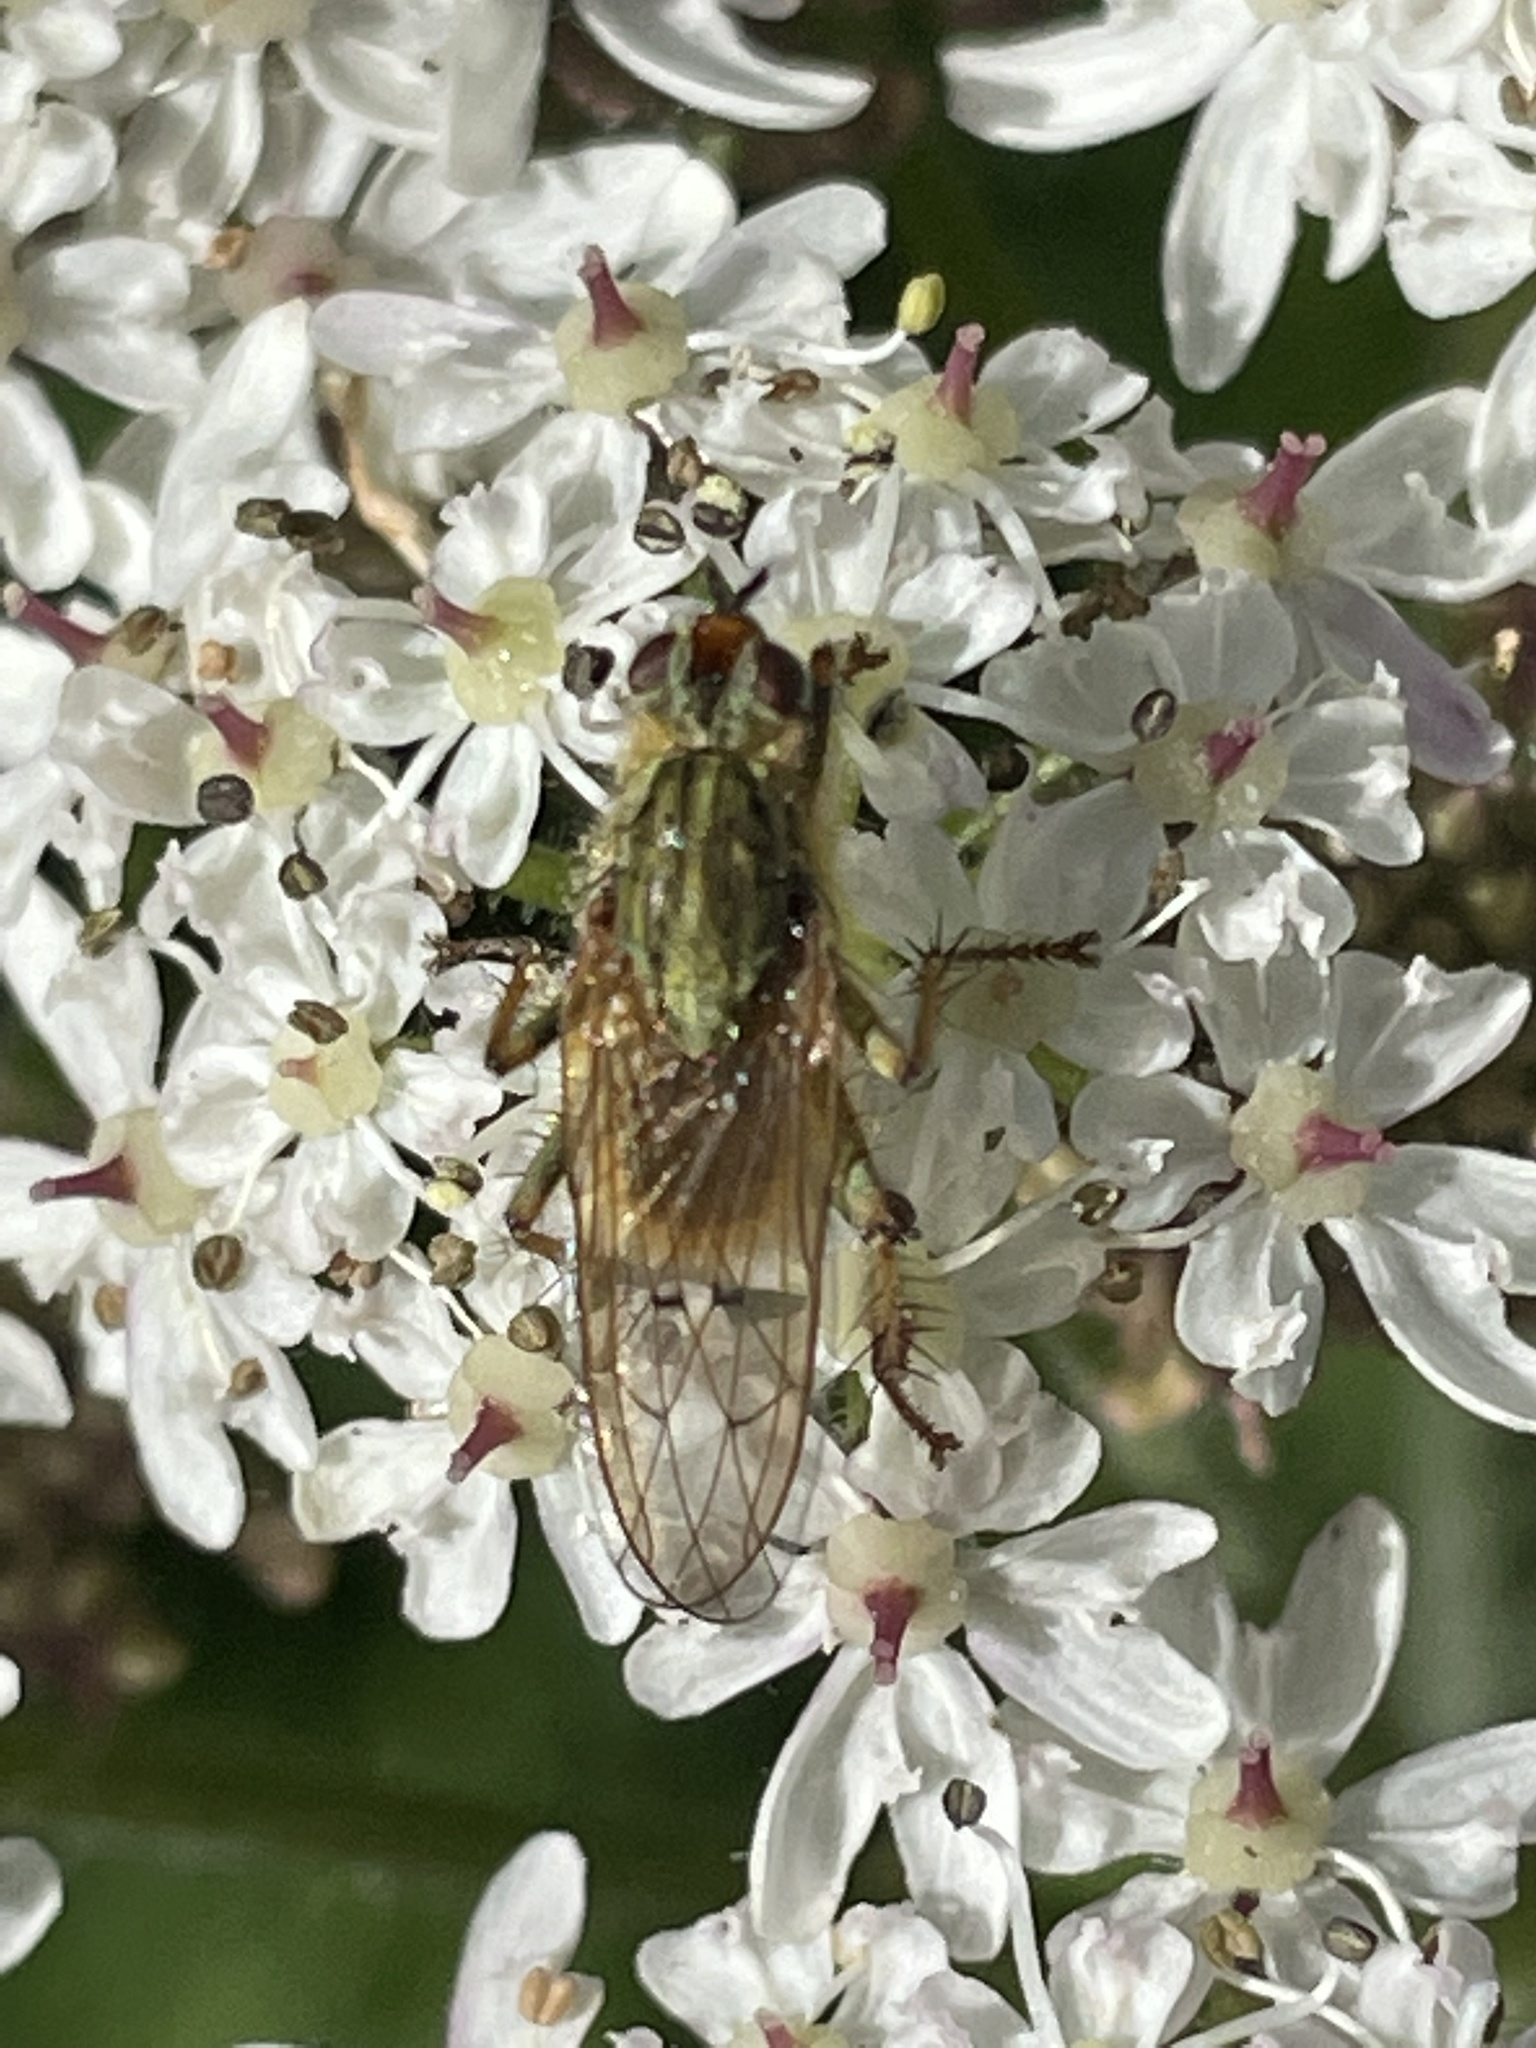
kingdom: Animalia
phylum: Arthropoda
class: Insecta
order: Diptera
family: Scathophagidae
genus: Scathophaga
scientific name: Scathophaga stercoraria
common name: Yellow dung fly
